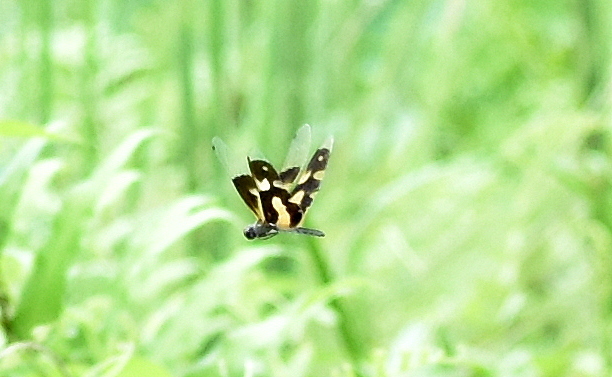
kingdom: Animalia
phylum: Arthropoda
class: Insecta
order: Odonata
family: Libellulidae
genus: Rhyothemis
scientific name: Rhyothemis variegata
